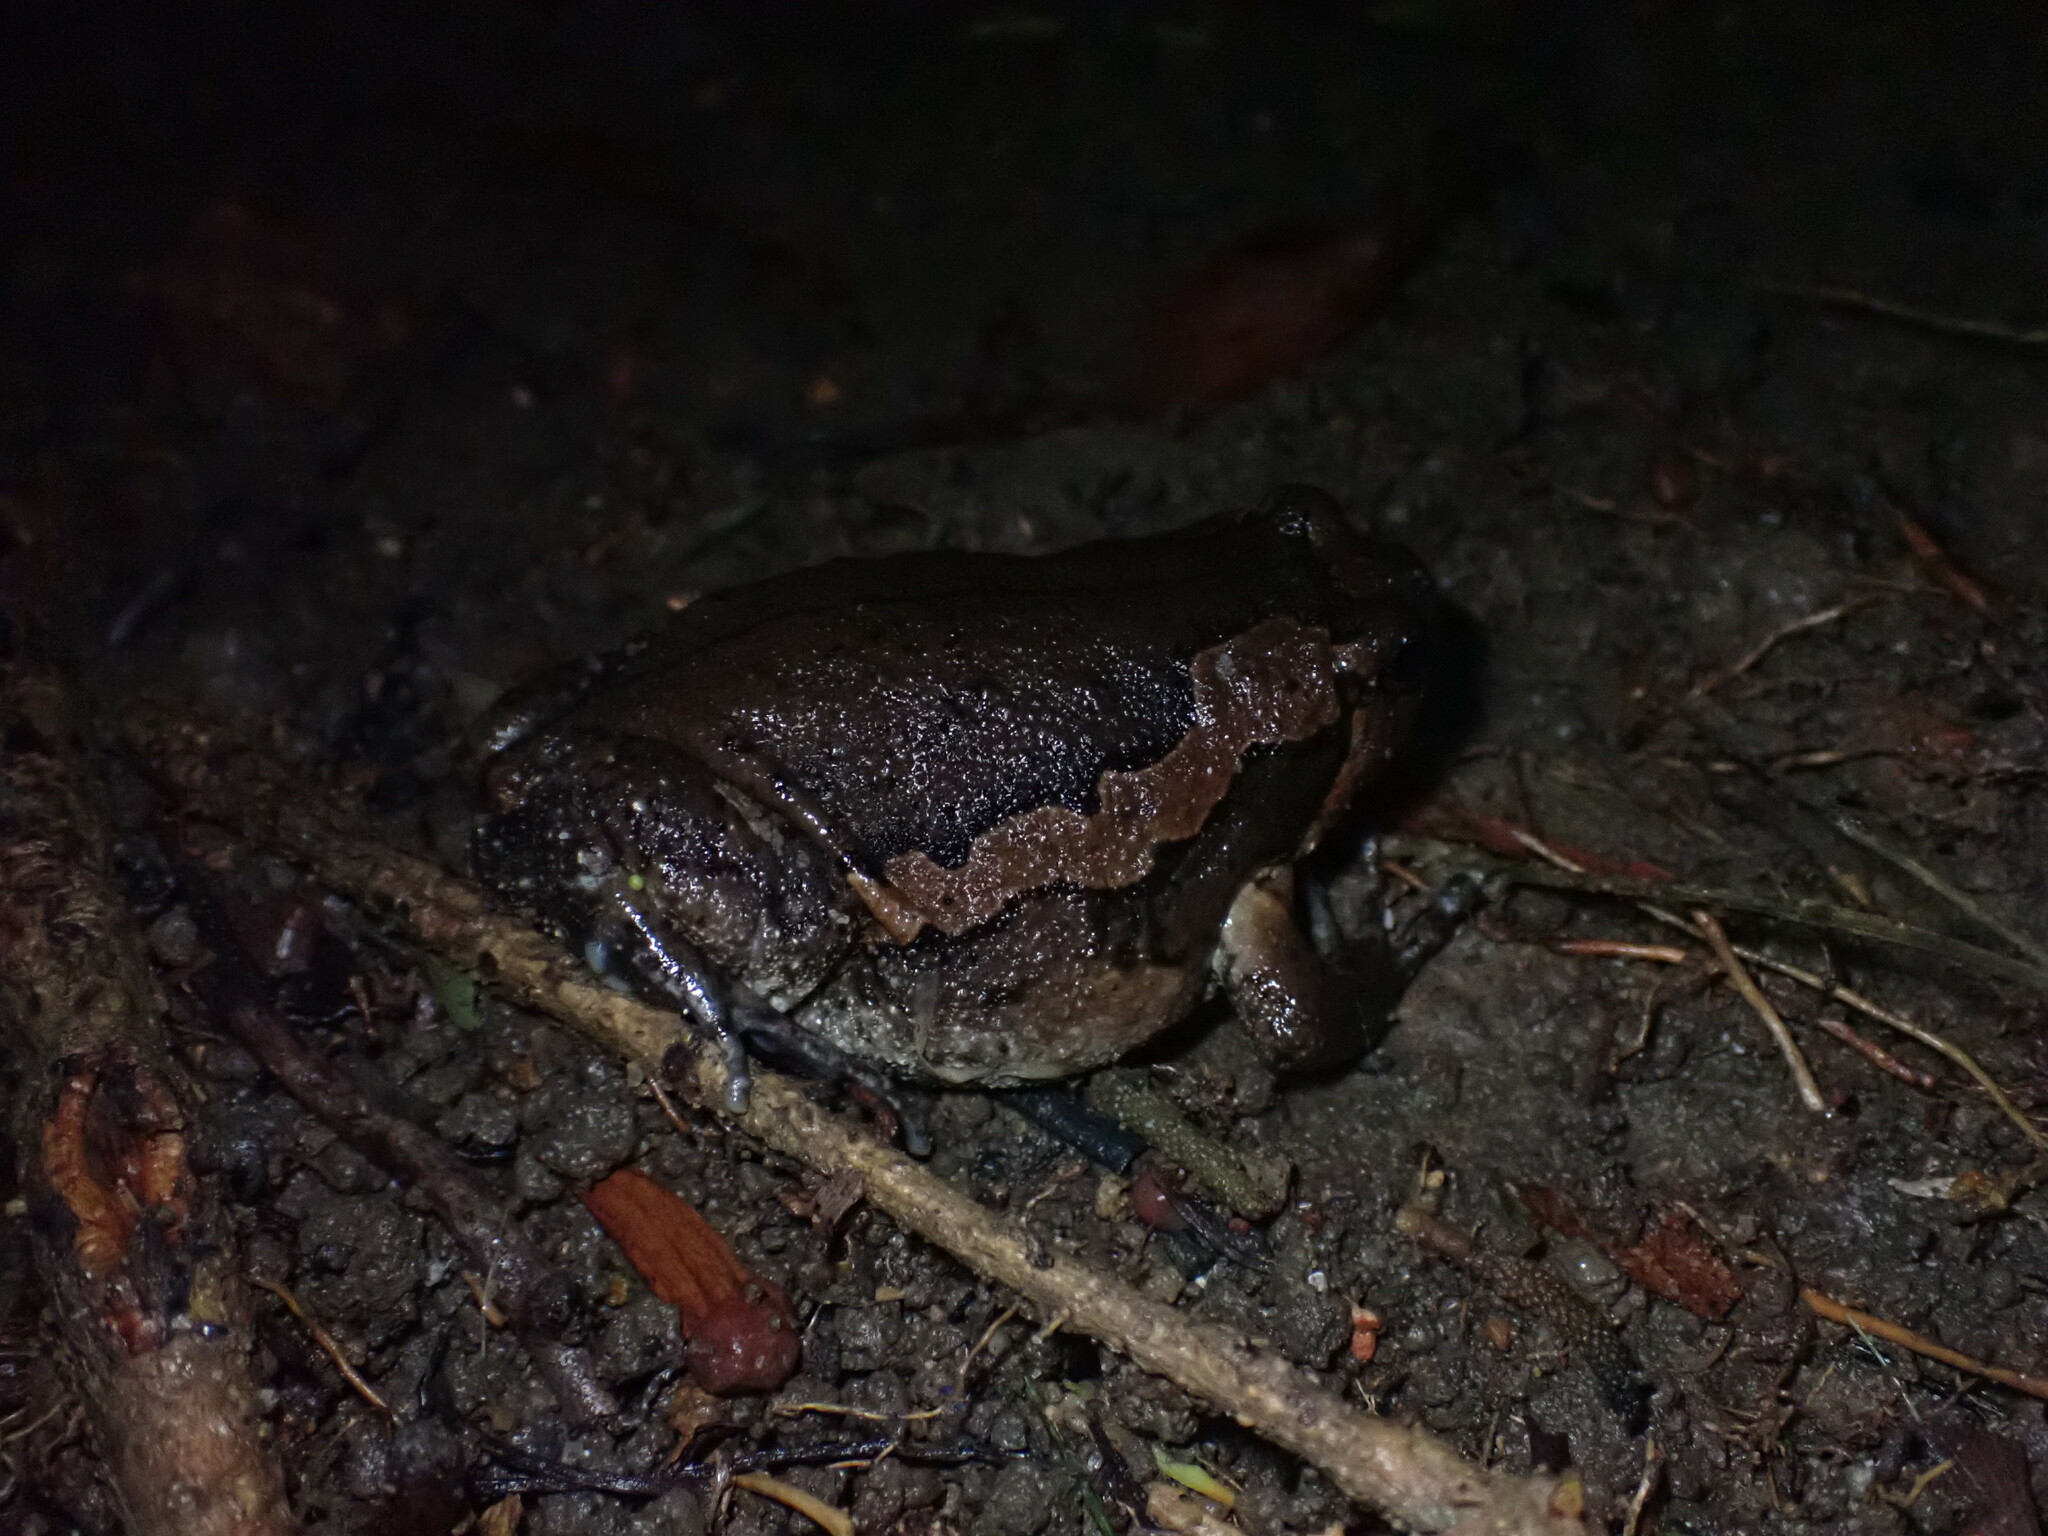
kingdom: Animalia
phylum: Chordata
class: Amphibia
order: Anura
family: Microhylidae
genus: Kaloula
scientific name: Kaloula pulchra
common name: Common,banded bullfrog
